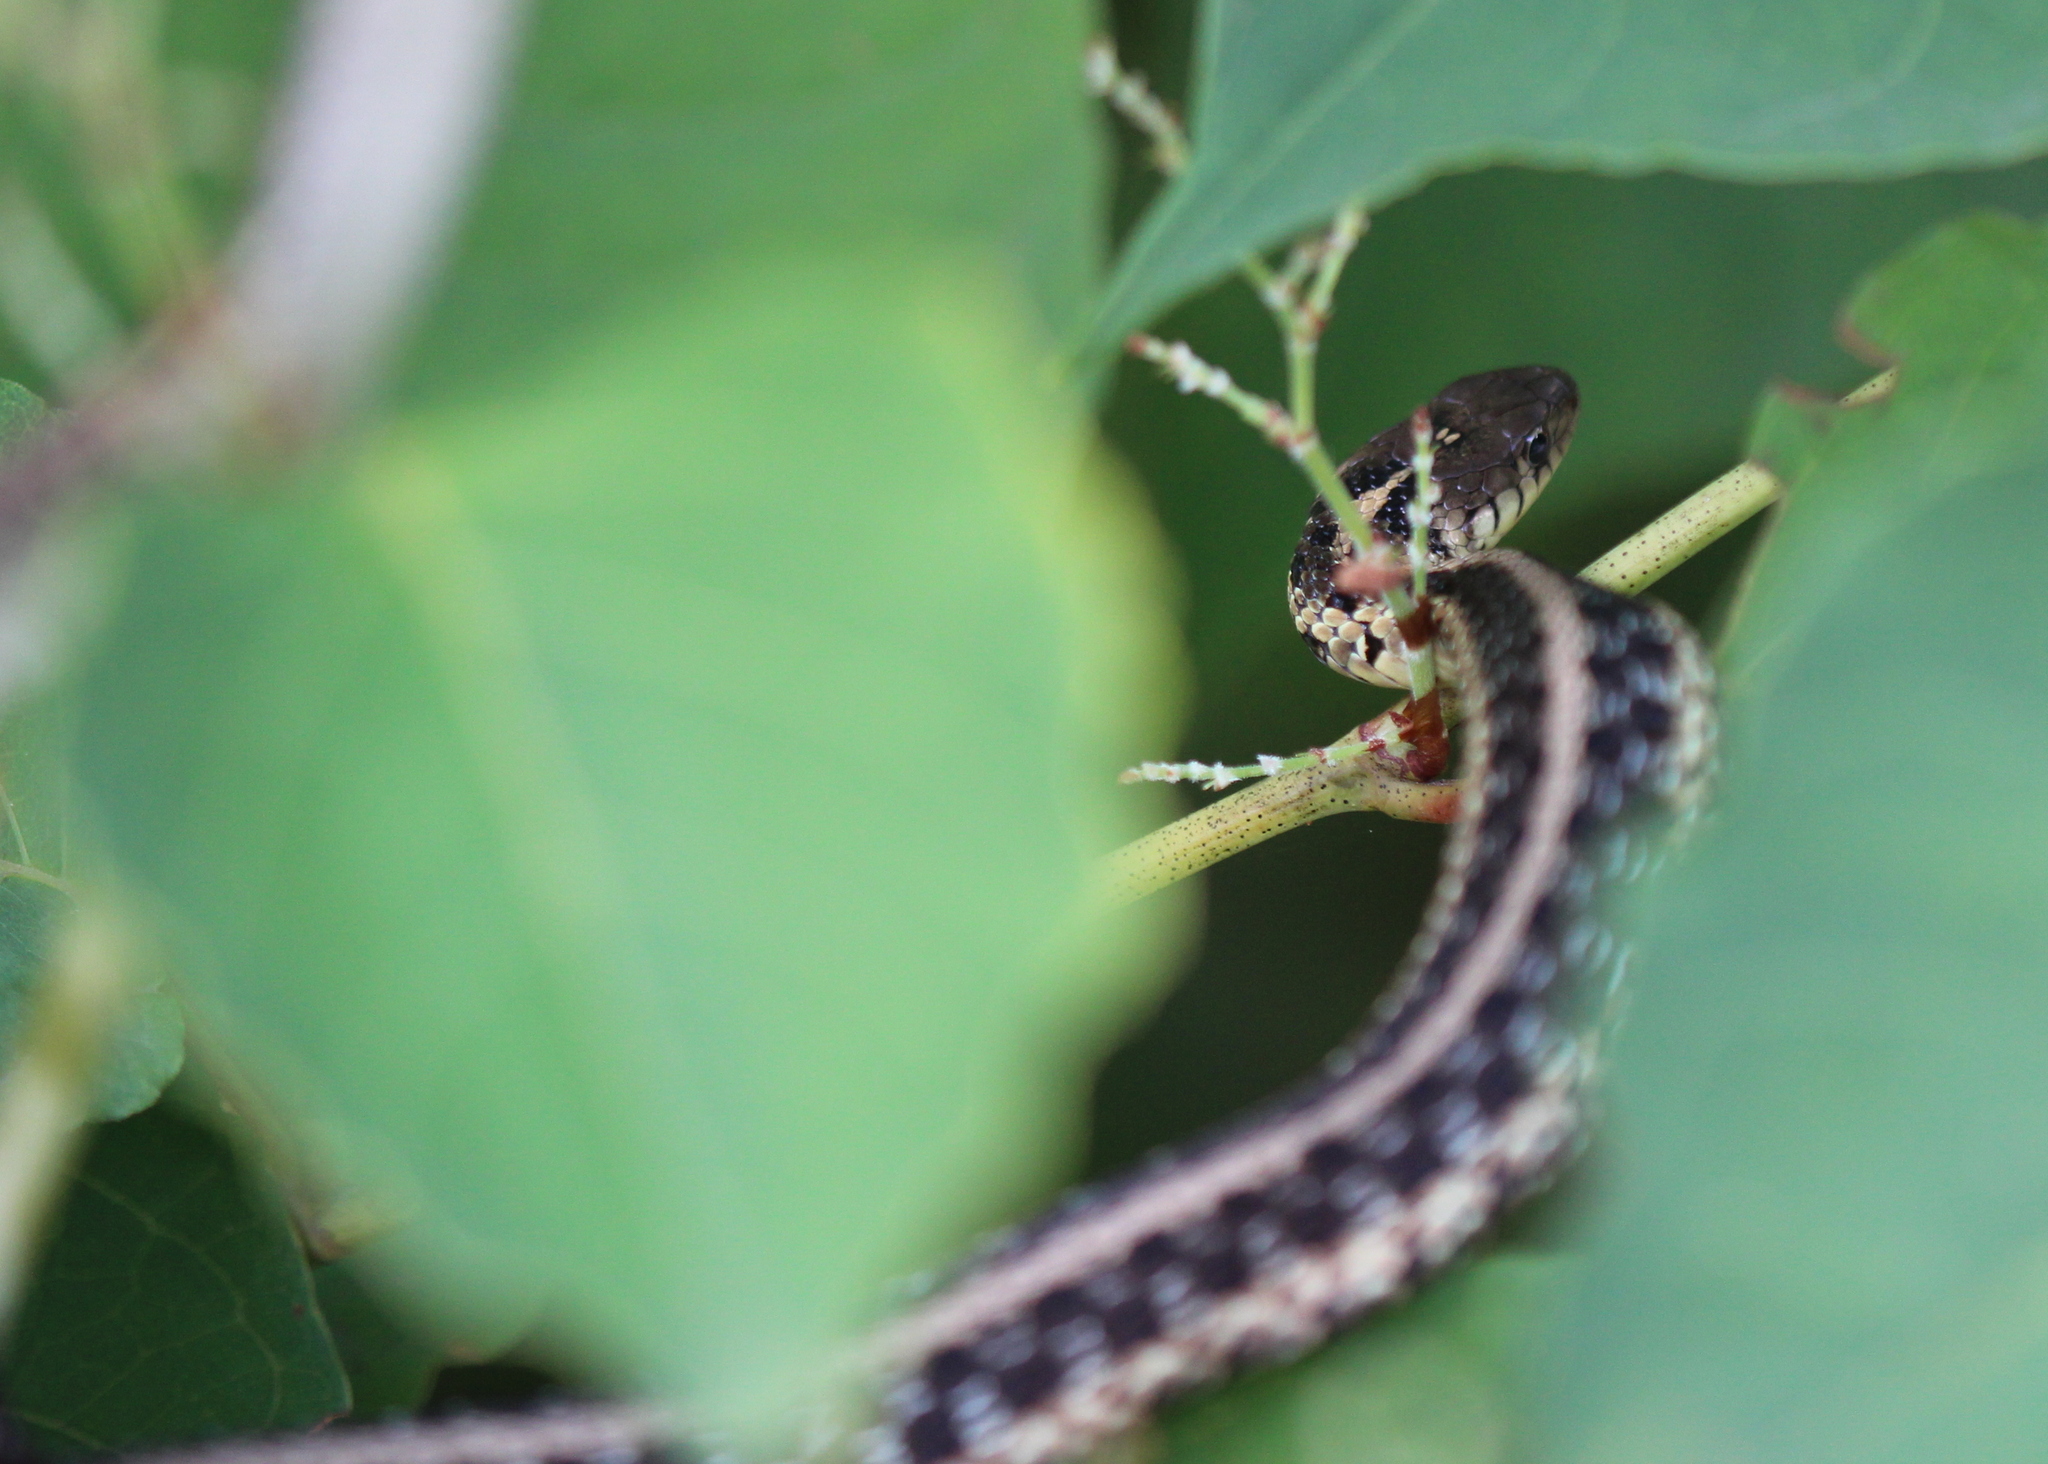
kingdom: Animalia
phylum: Chordata
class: Squamata
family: Colubridae
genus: Thamnophis
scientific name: Thamnophis sirtalis
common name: Common garter snake
